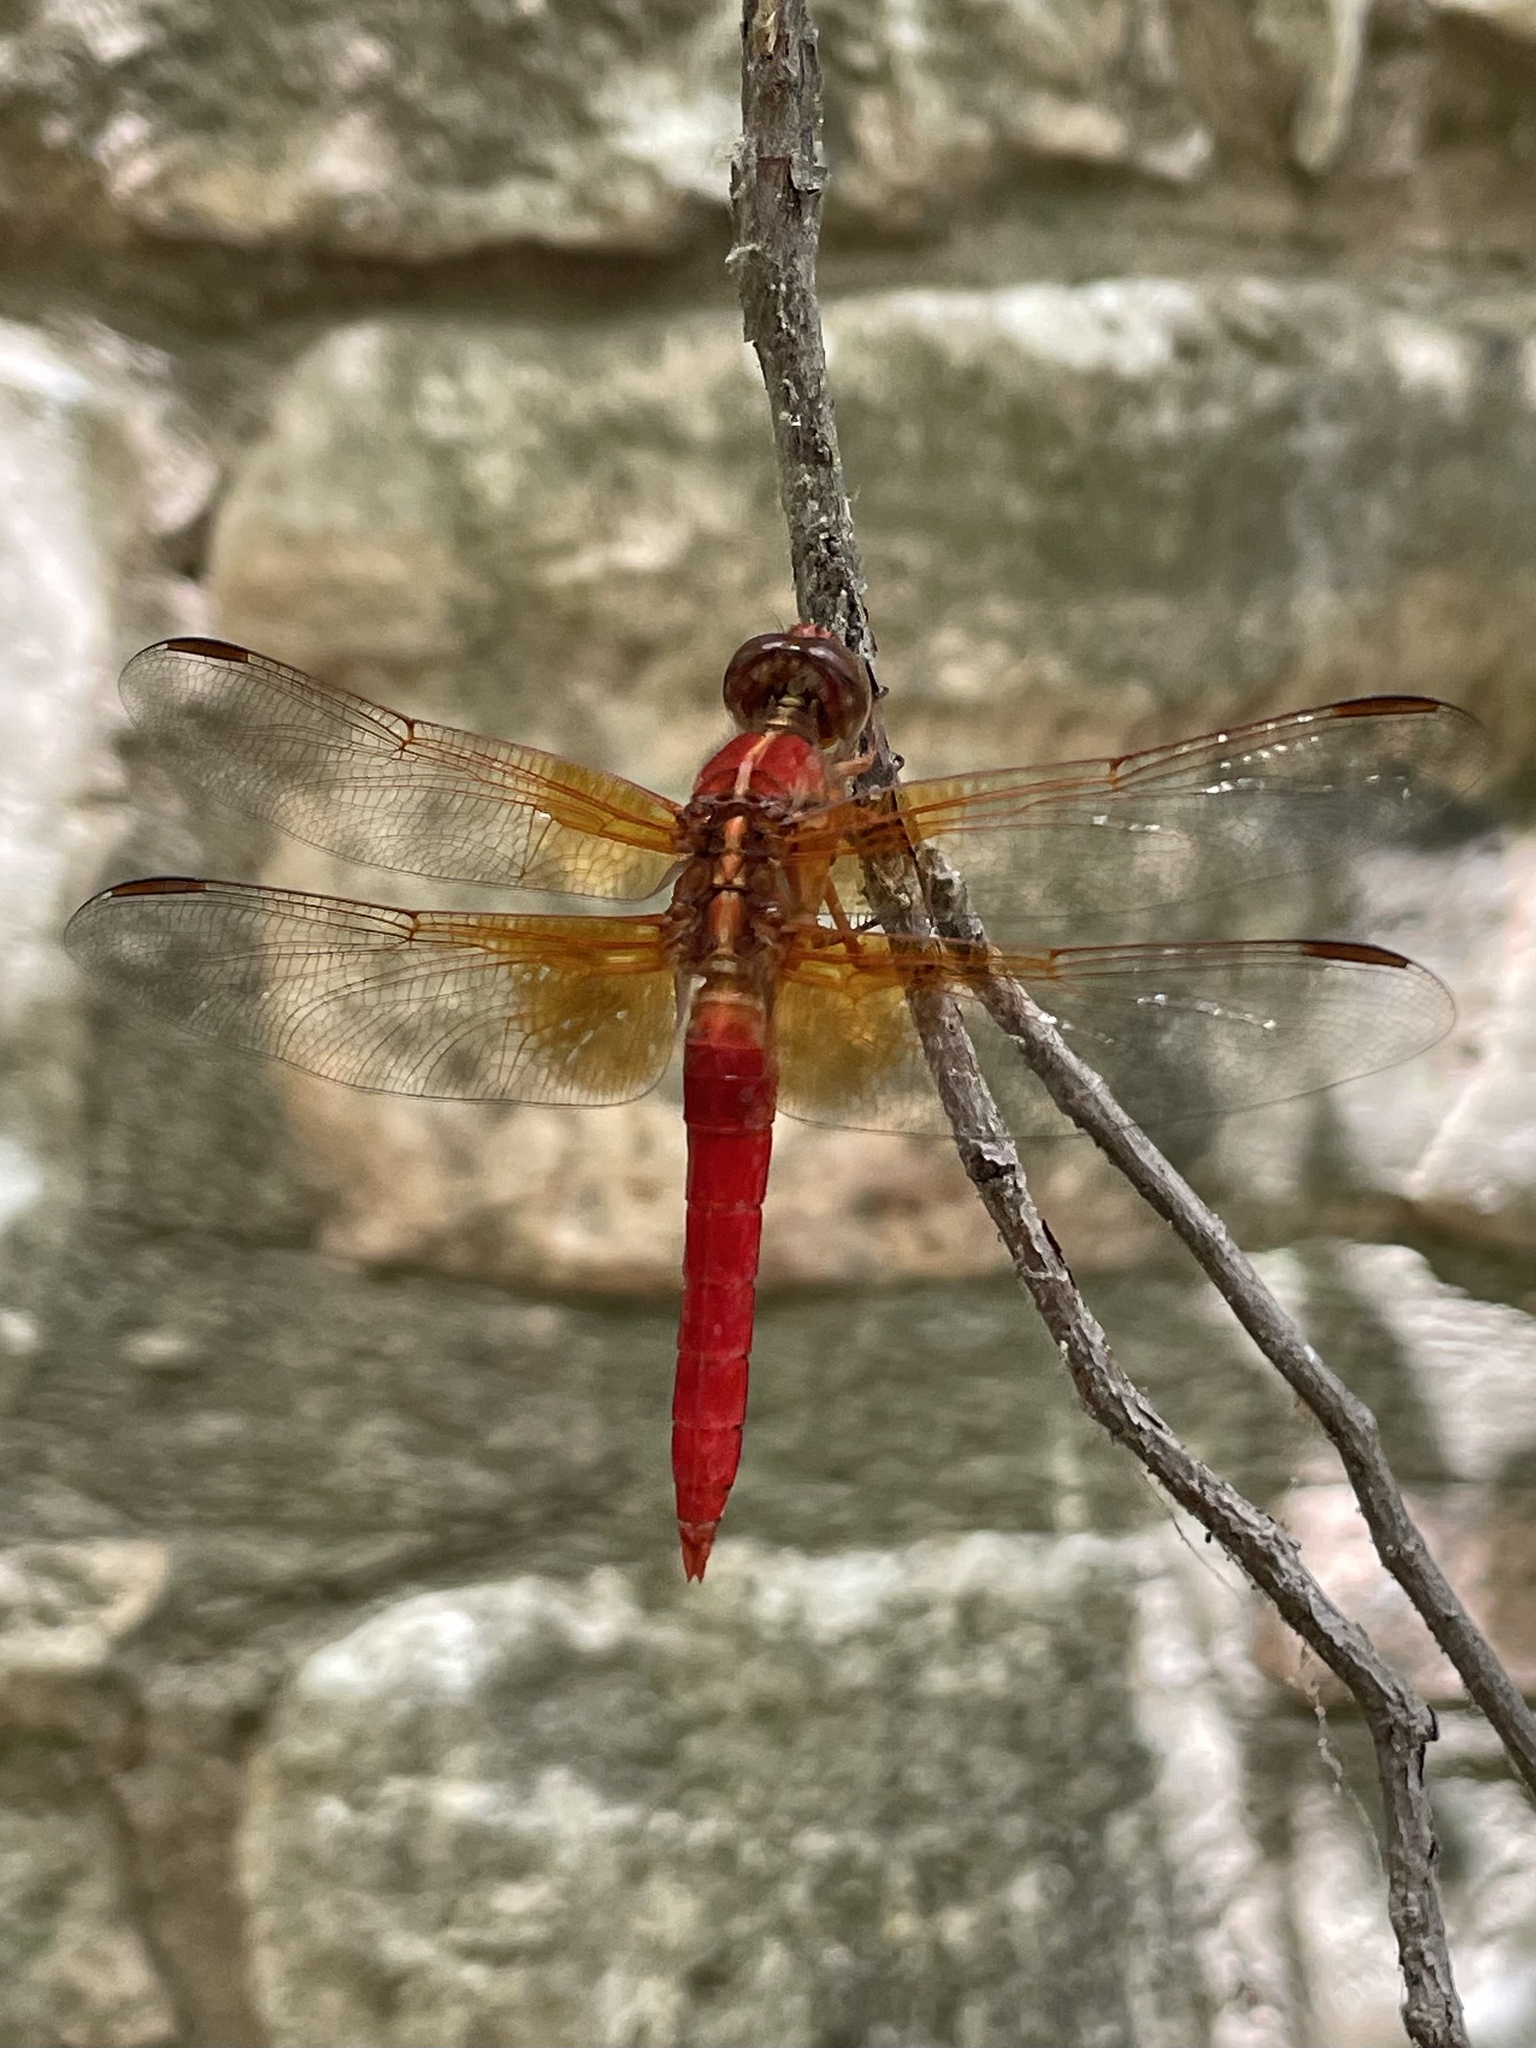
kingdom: Animalia
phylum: Arthropoda
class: Insecta
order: Odonata
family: Libellulidae
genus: Libellula
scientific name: Libellula croceipennis
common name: Neon skimmer
